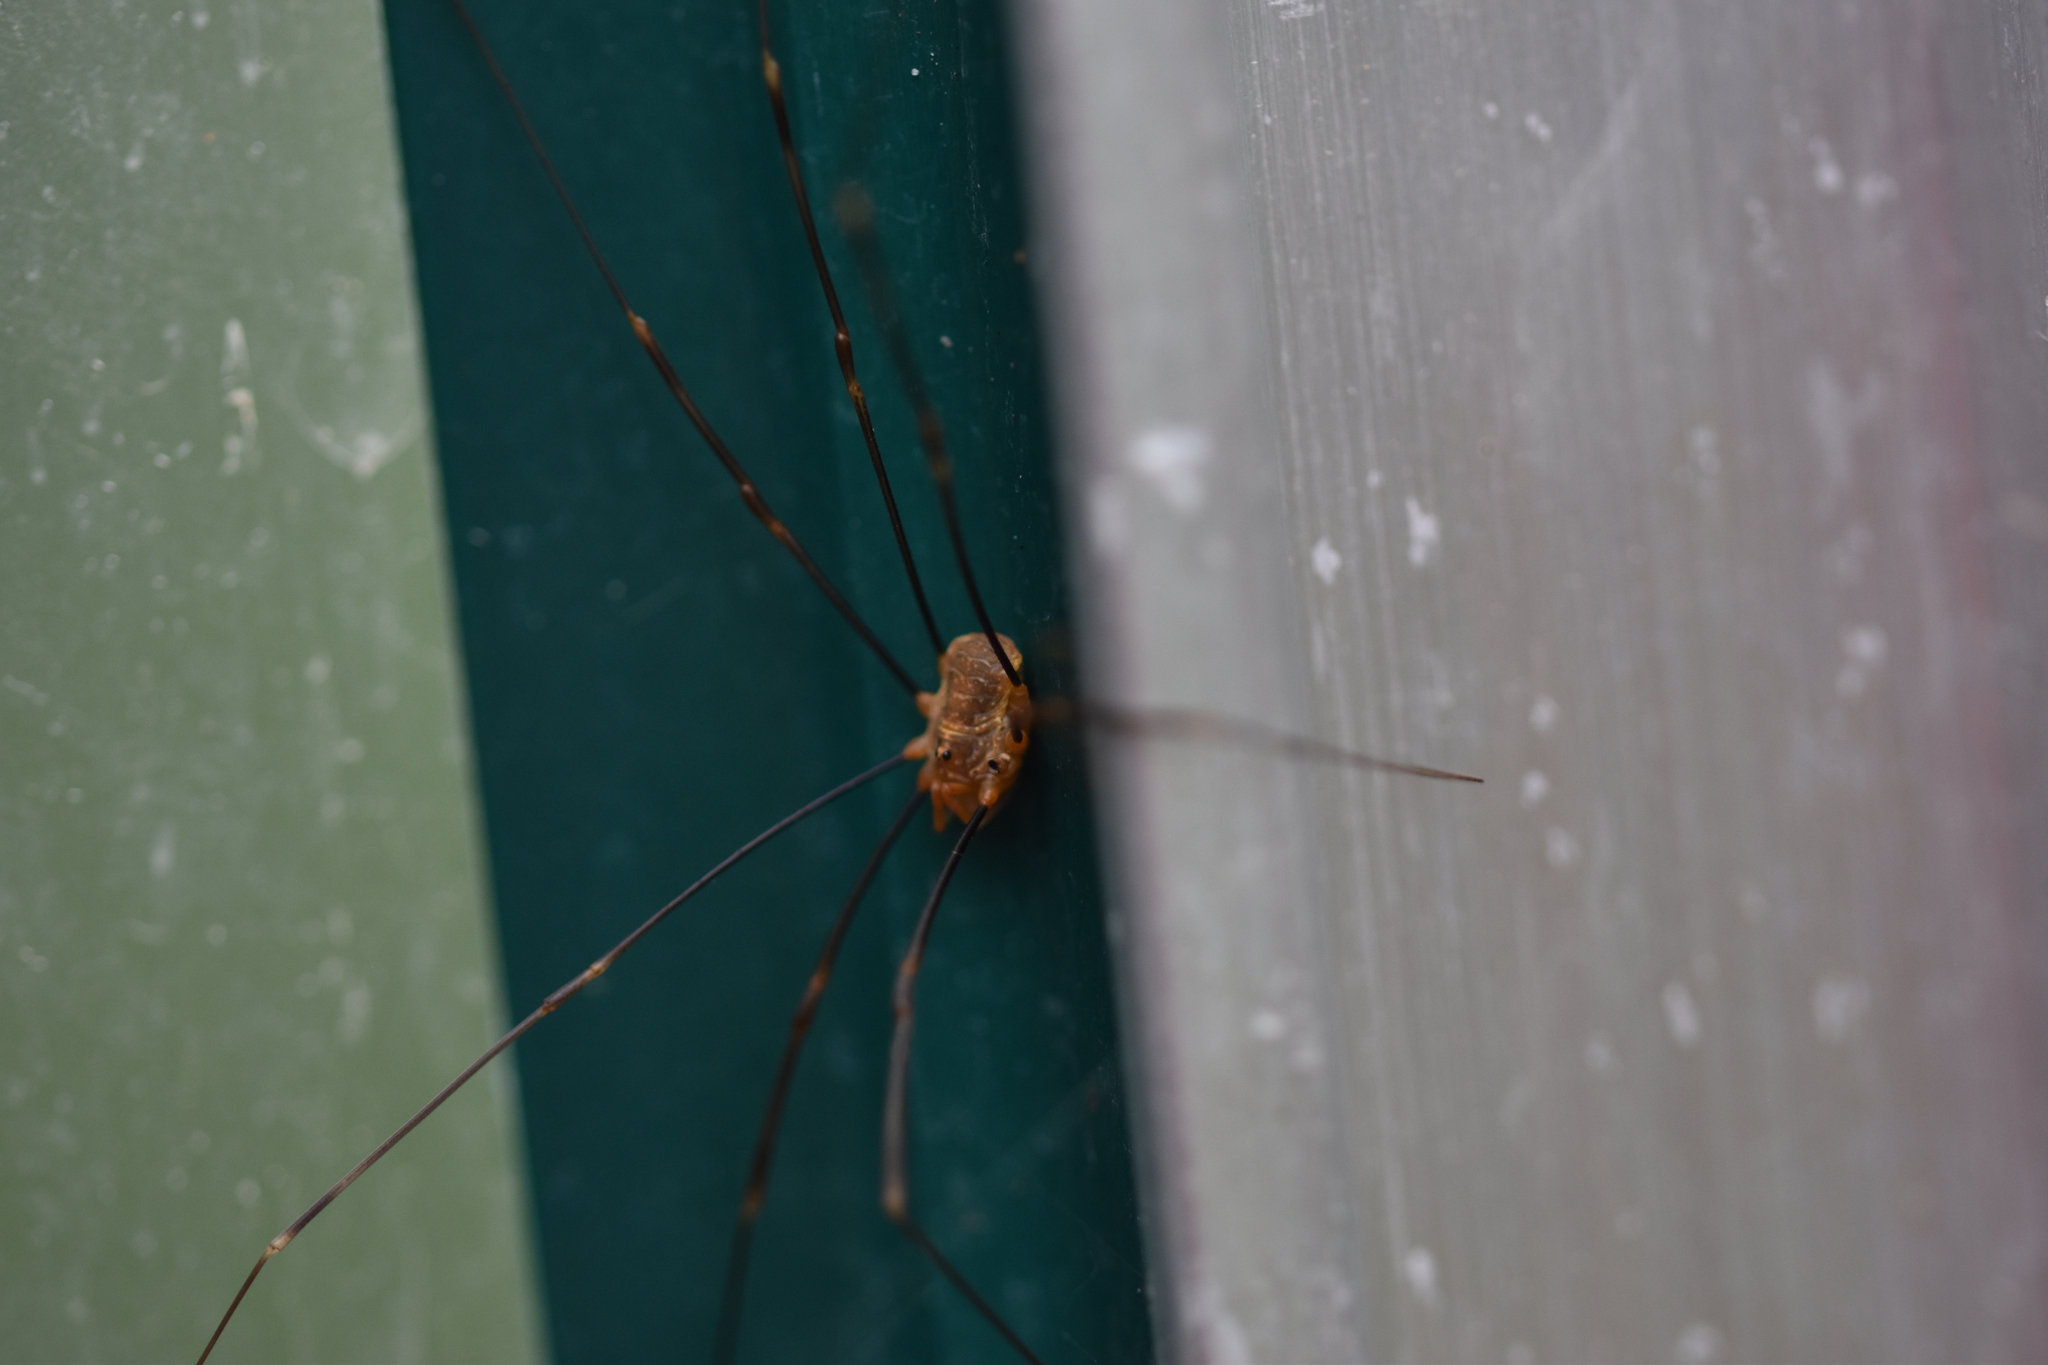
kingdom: Animalia
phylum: Arthropoda
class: Arachnida
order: Opiliones
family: Phalangiidae
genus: Opilio
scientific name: Opilio canestrinii
